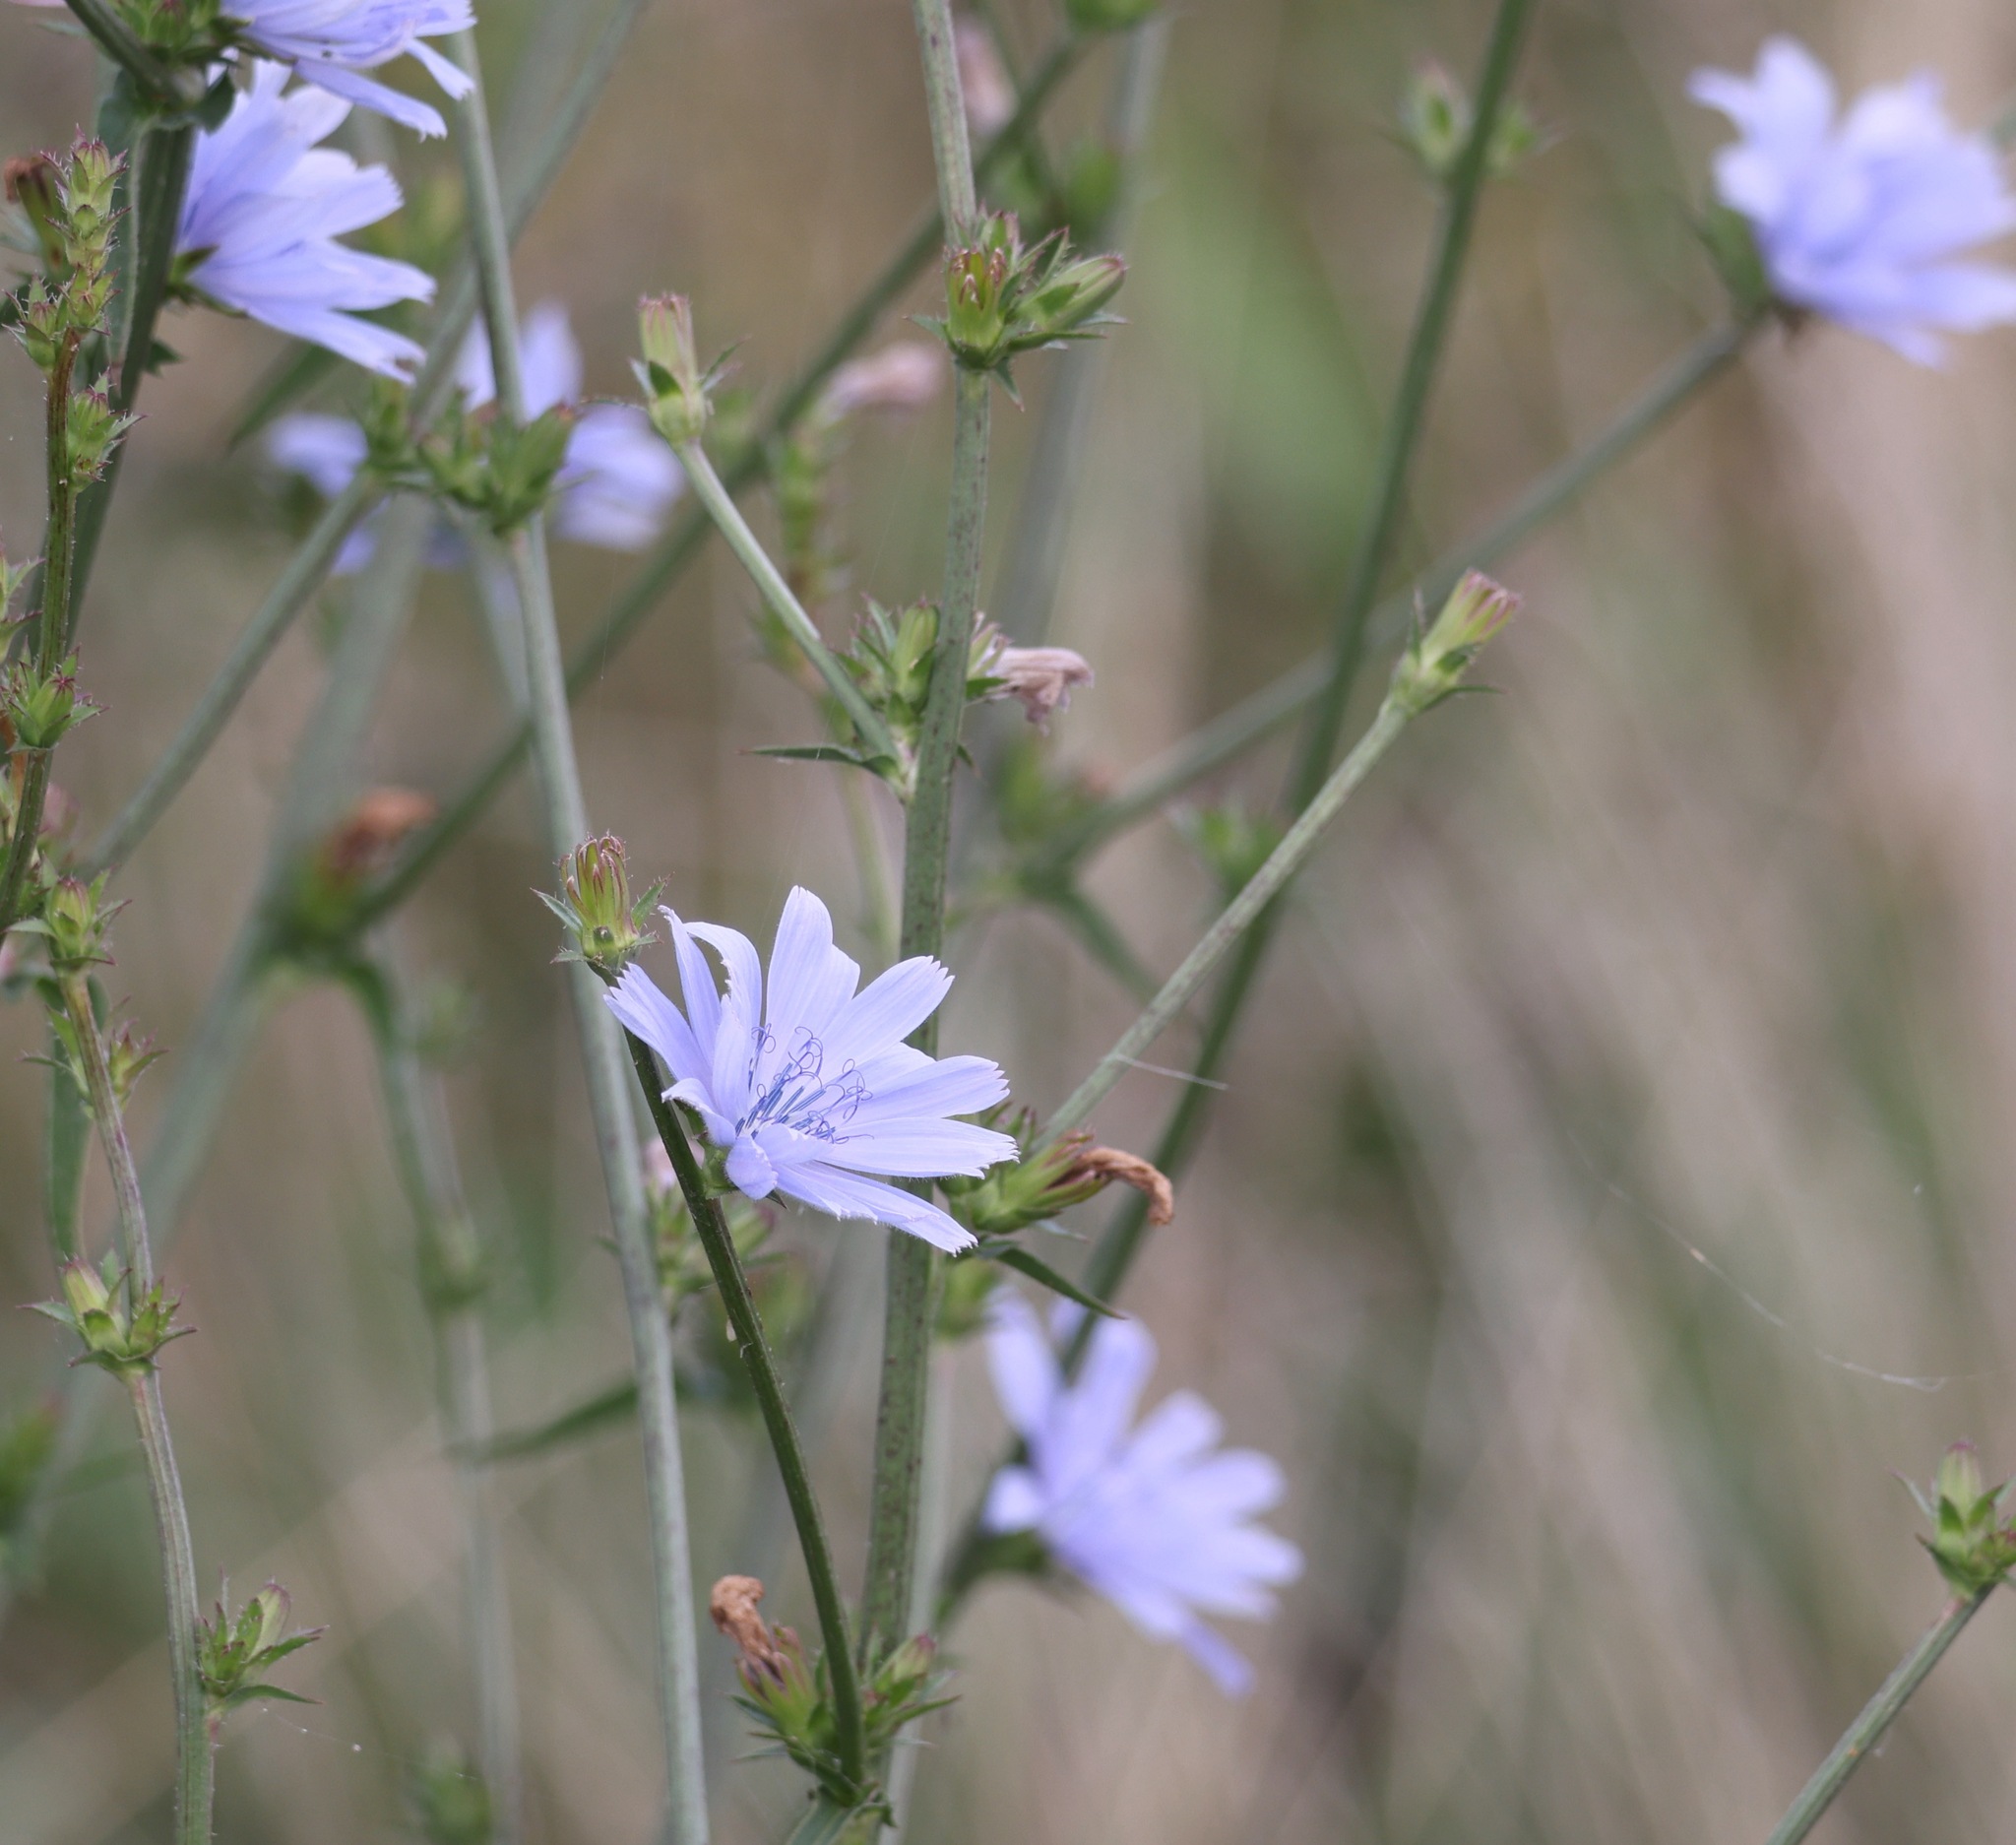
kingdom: Plantae
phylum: Tracheophyta
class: Magnoliopsida
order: Asterales
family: Asteraceae
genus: Cichorium
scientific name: Cichorium intybus
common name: Chicory
